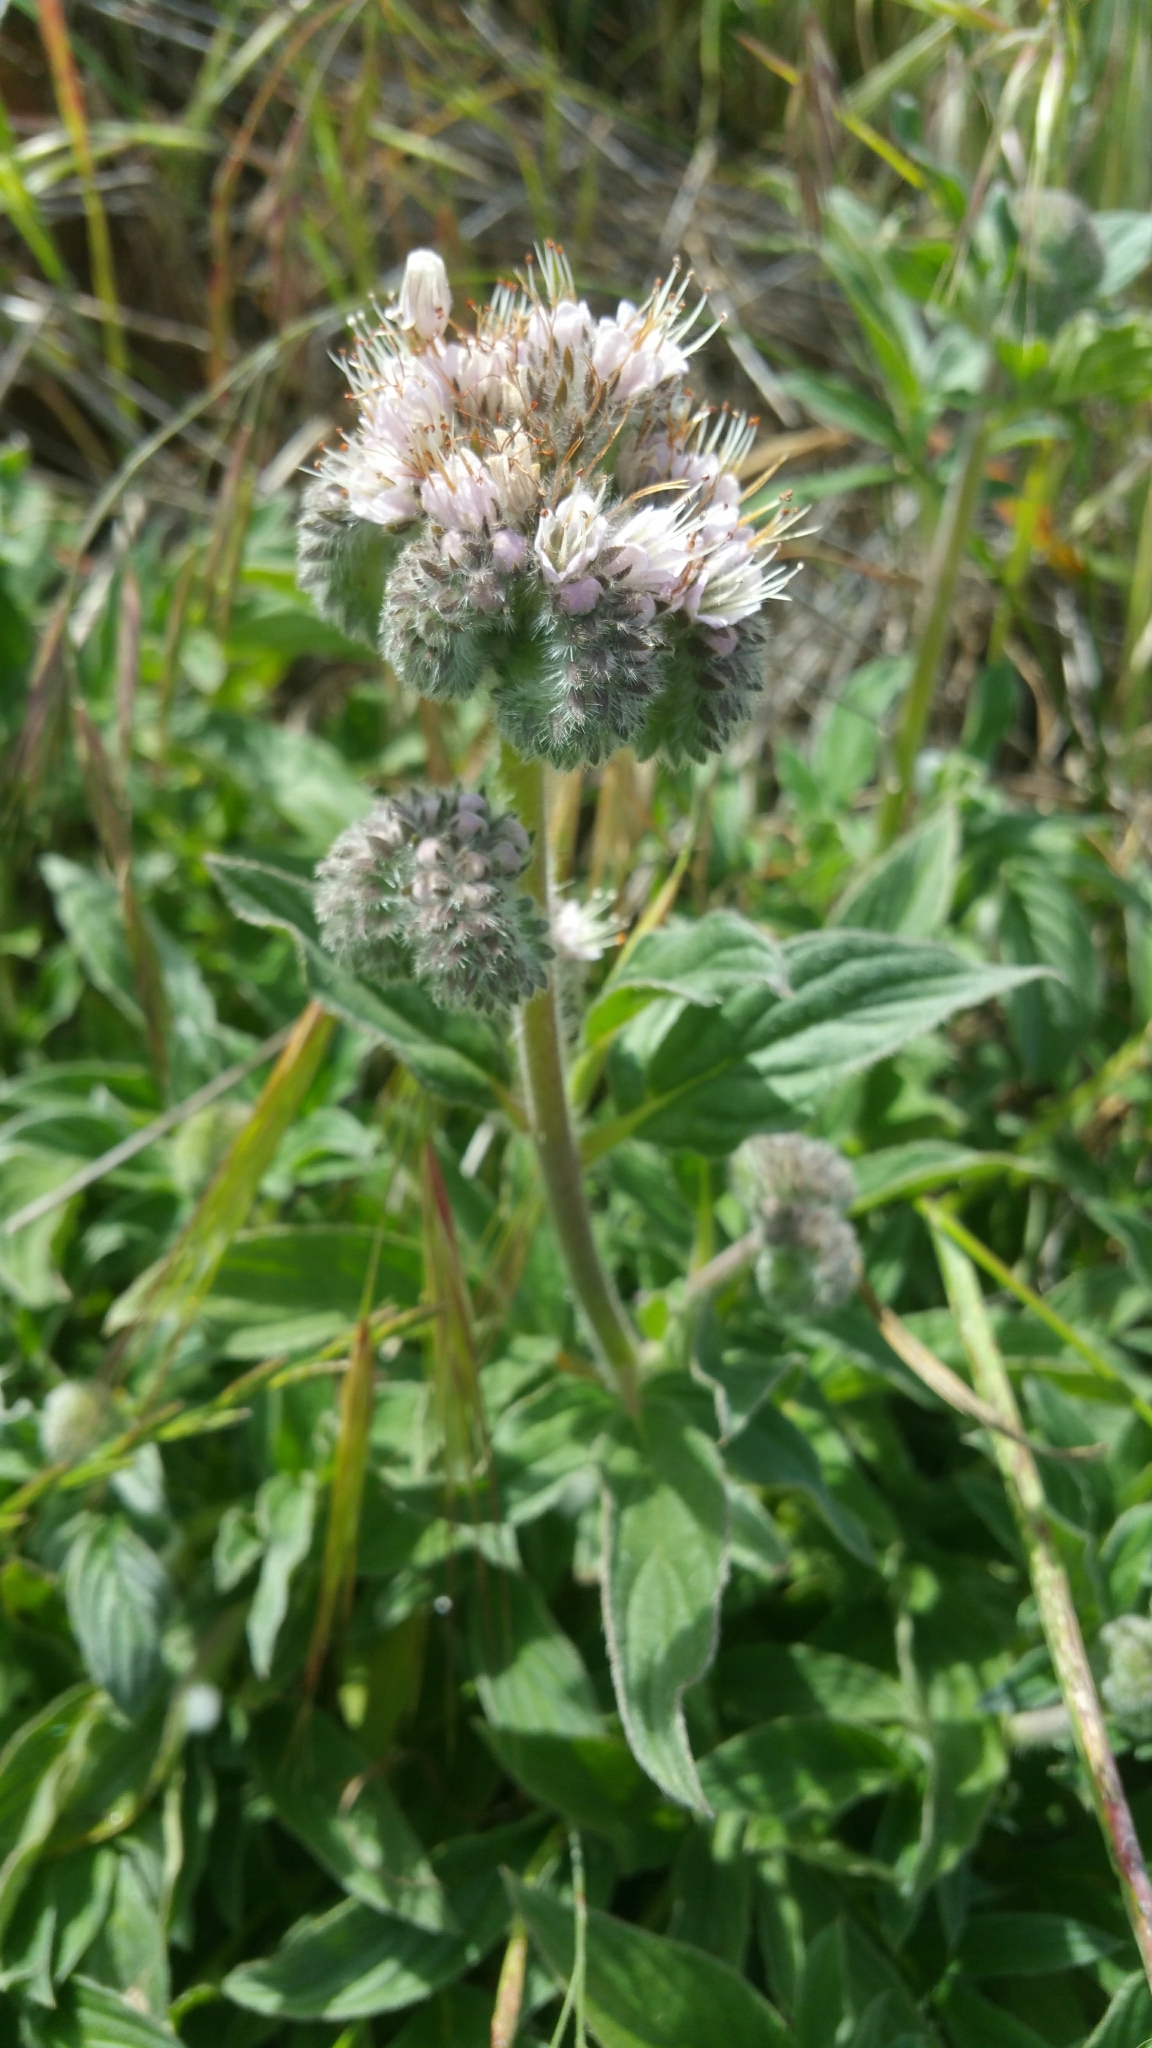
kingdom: Plantae
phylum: Tracheophyta
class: Magnoliopsida
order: Boraginales
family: Hydrophyllaceae
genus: Phacelia
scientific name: Phacelia californica
